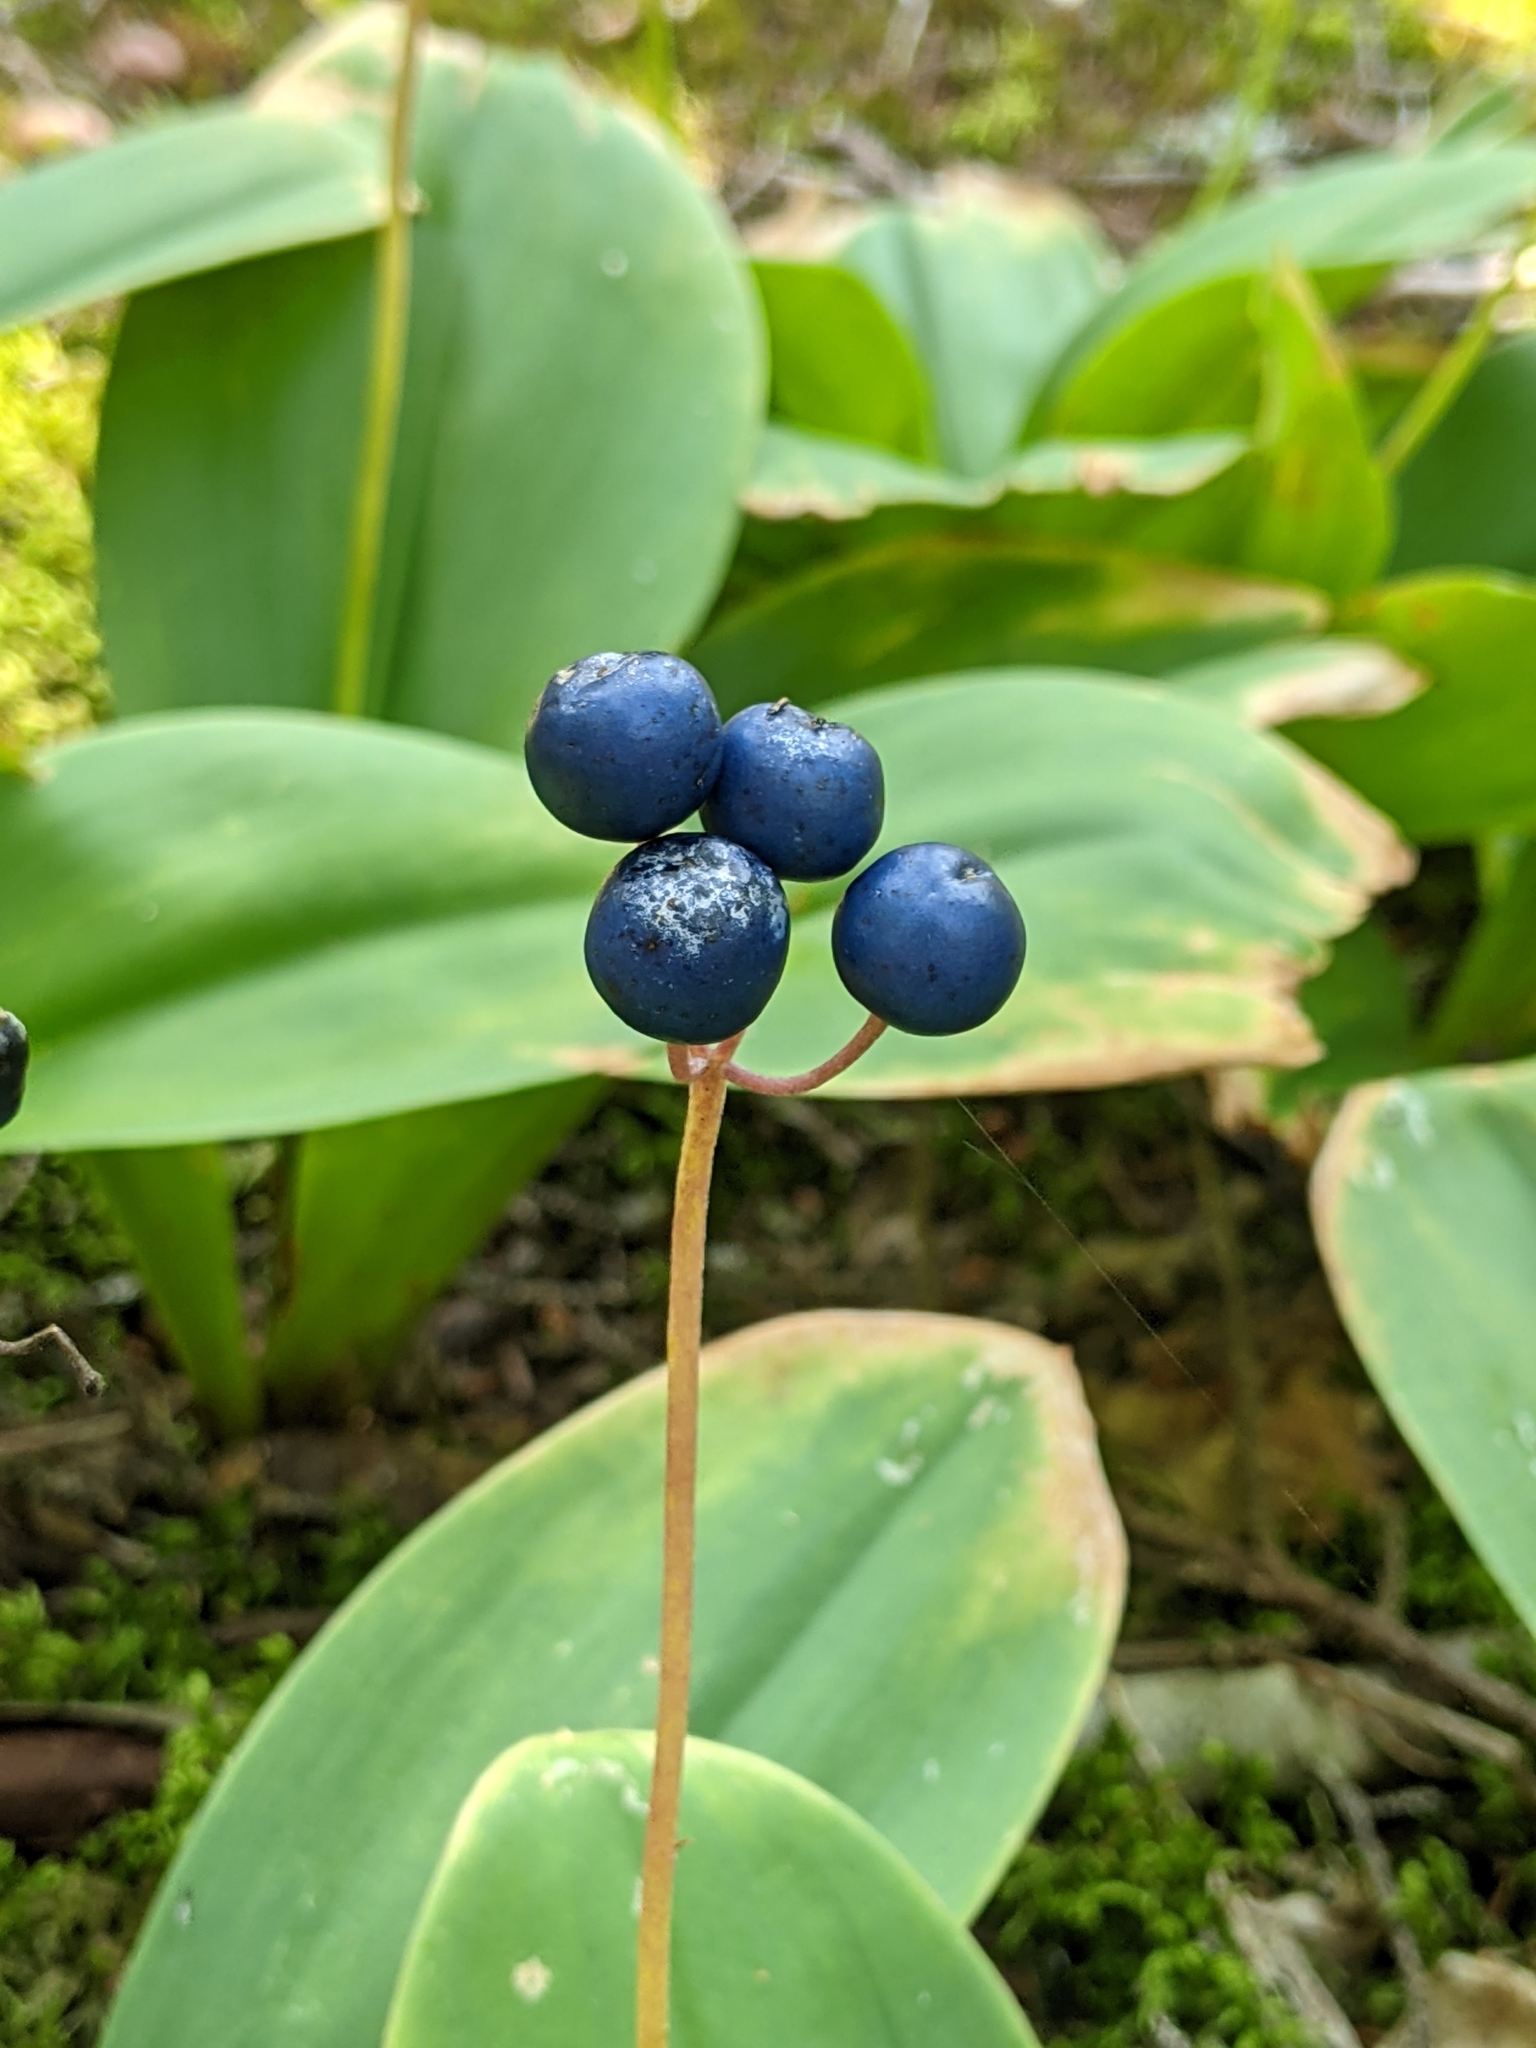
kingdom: Plantae
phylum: Tracheophyta
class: Liliopsida
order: Liliales
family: Liliaceae
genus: Clintonia
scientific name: Clintonia borealis
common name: Yellow clintonia
